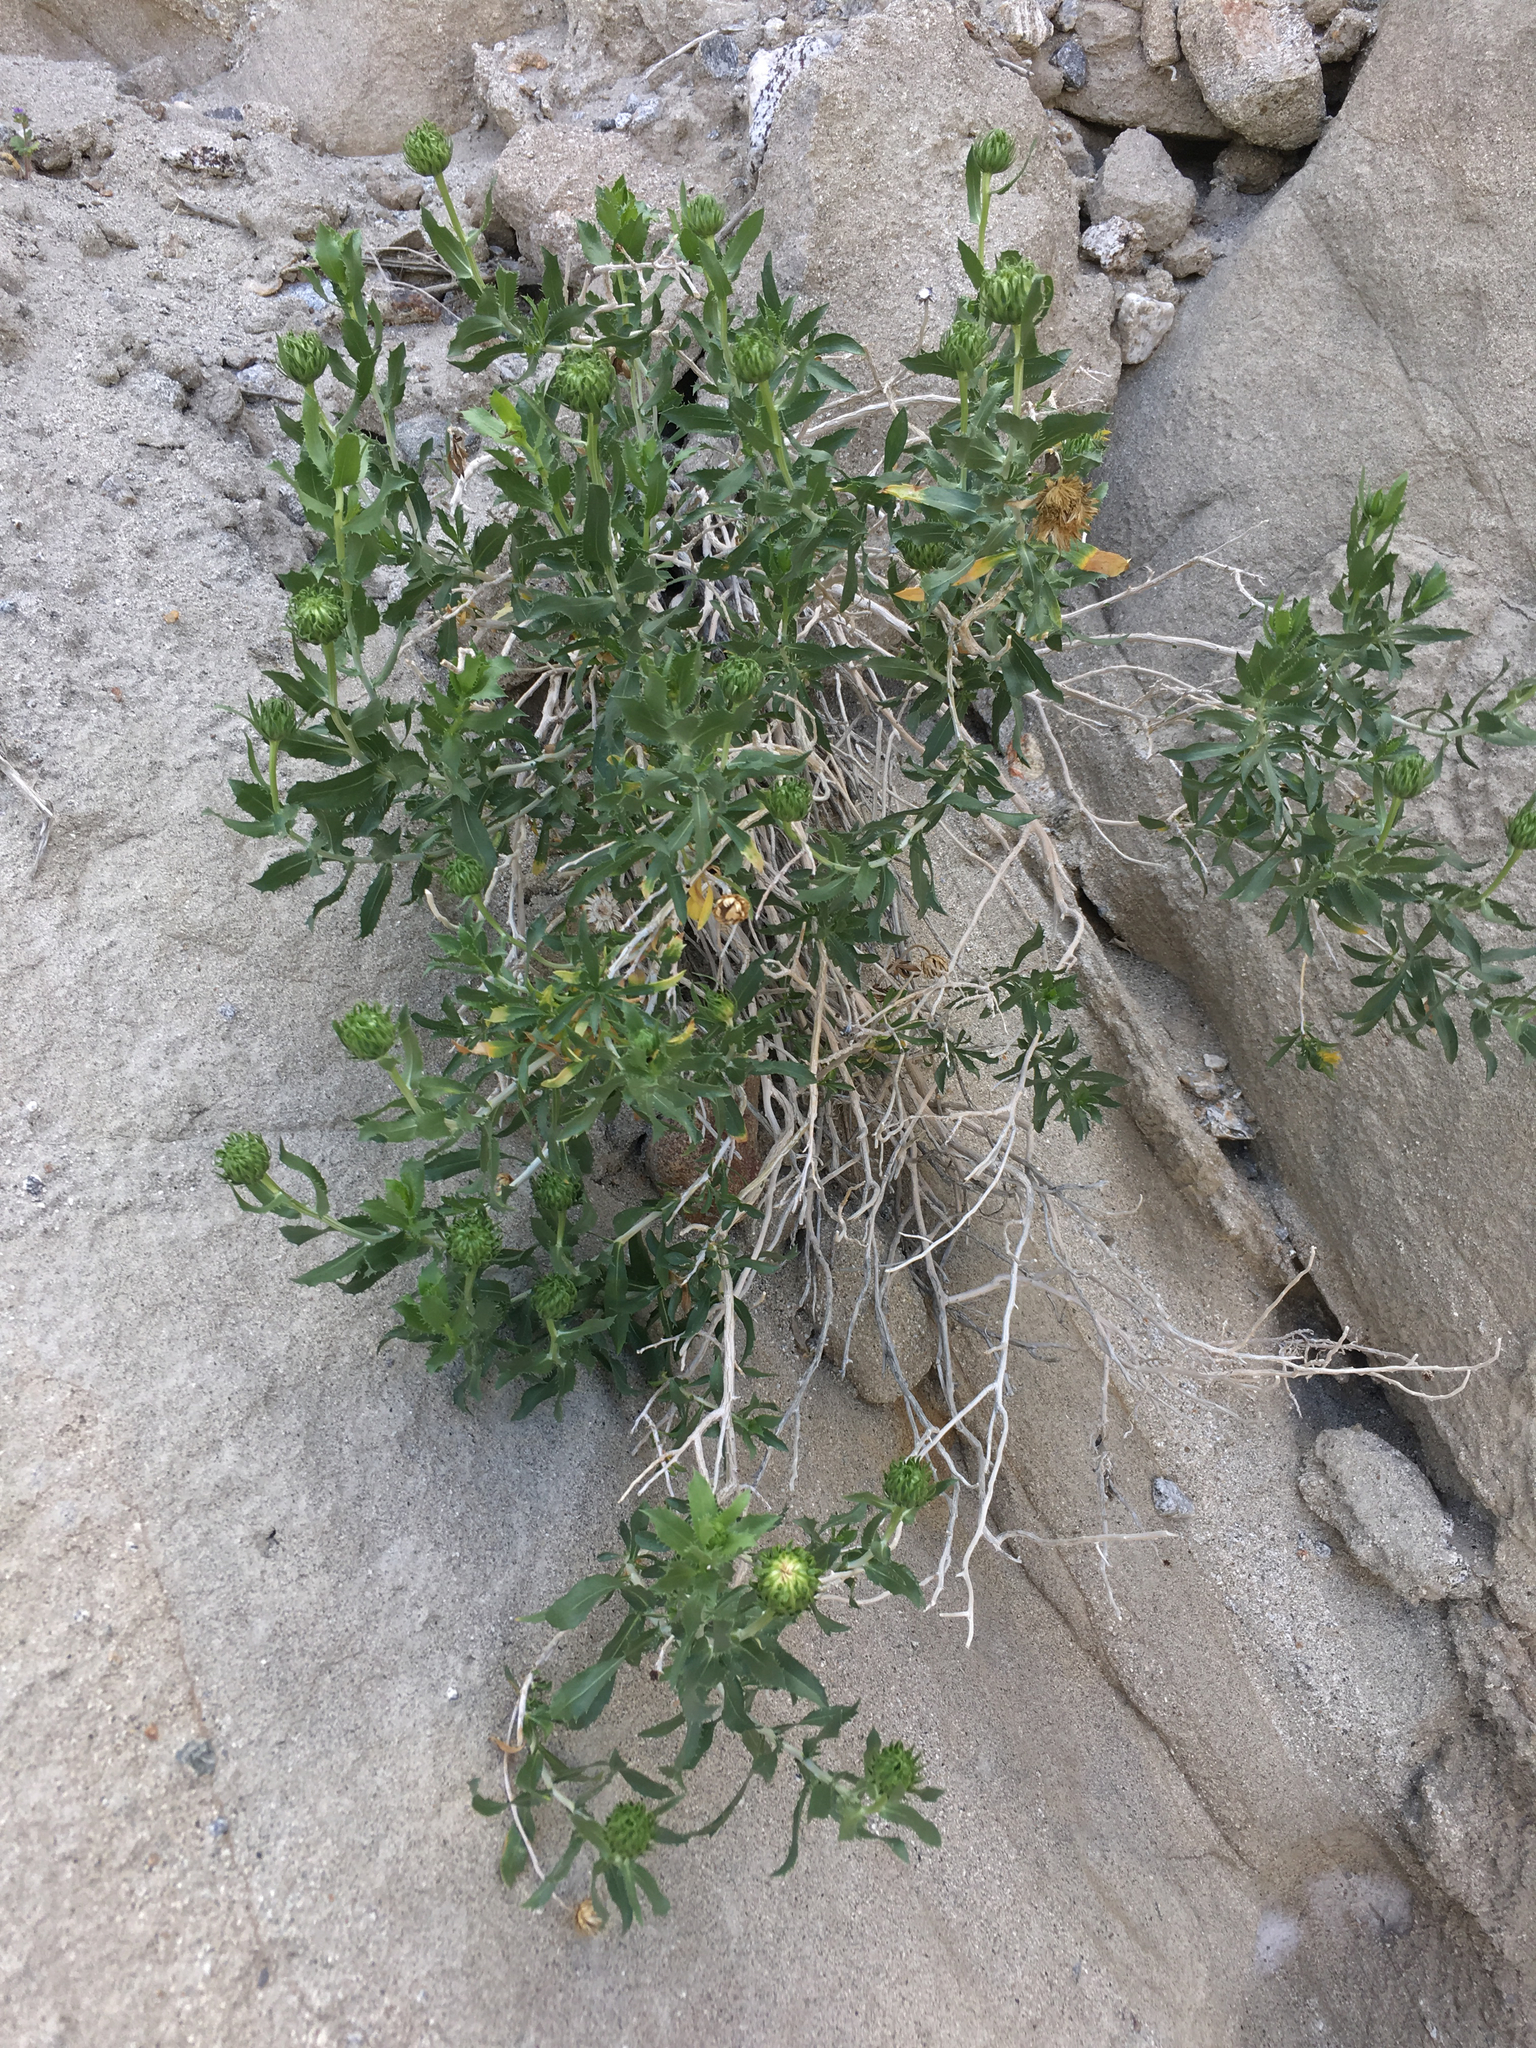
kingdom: Plantae
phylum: Tracheophyta
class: Magnoliopsida
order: Asterales
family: Asteraceae
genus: Xylorhiza
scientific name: Xylorhiza orcuttii
